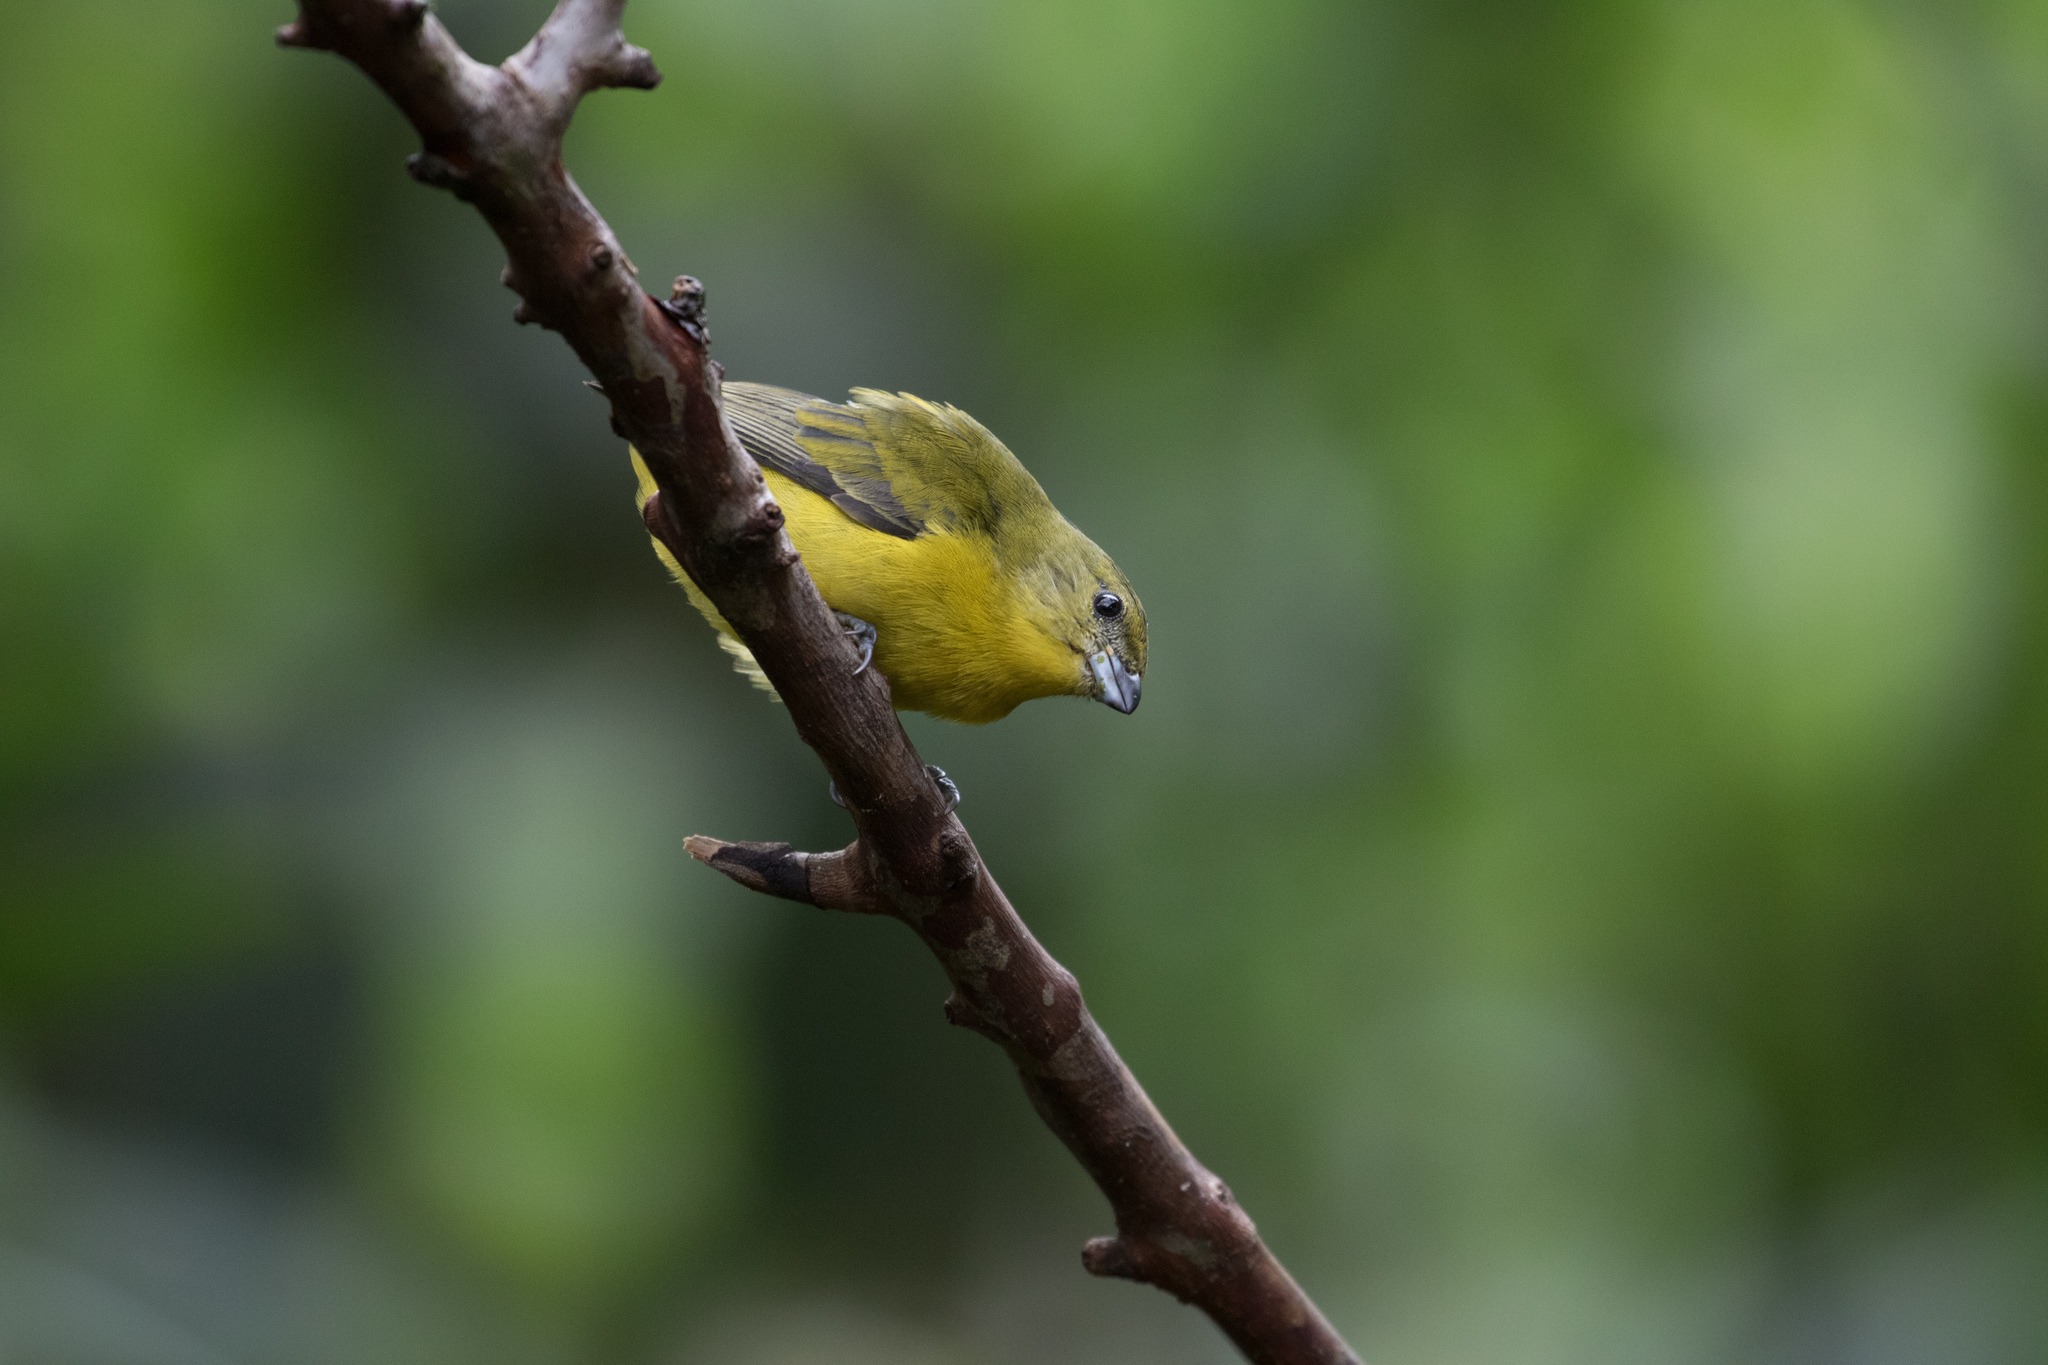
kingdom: Animalia
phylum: Chordata
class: Aves
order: Passeriformes
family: Fringillidae
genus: Euphonia
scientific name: Euphonia laniirostris
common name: Thick-billed euphonia
